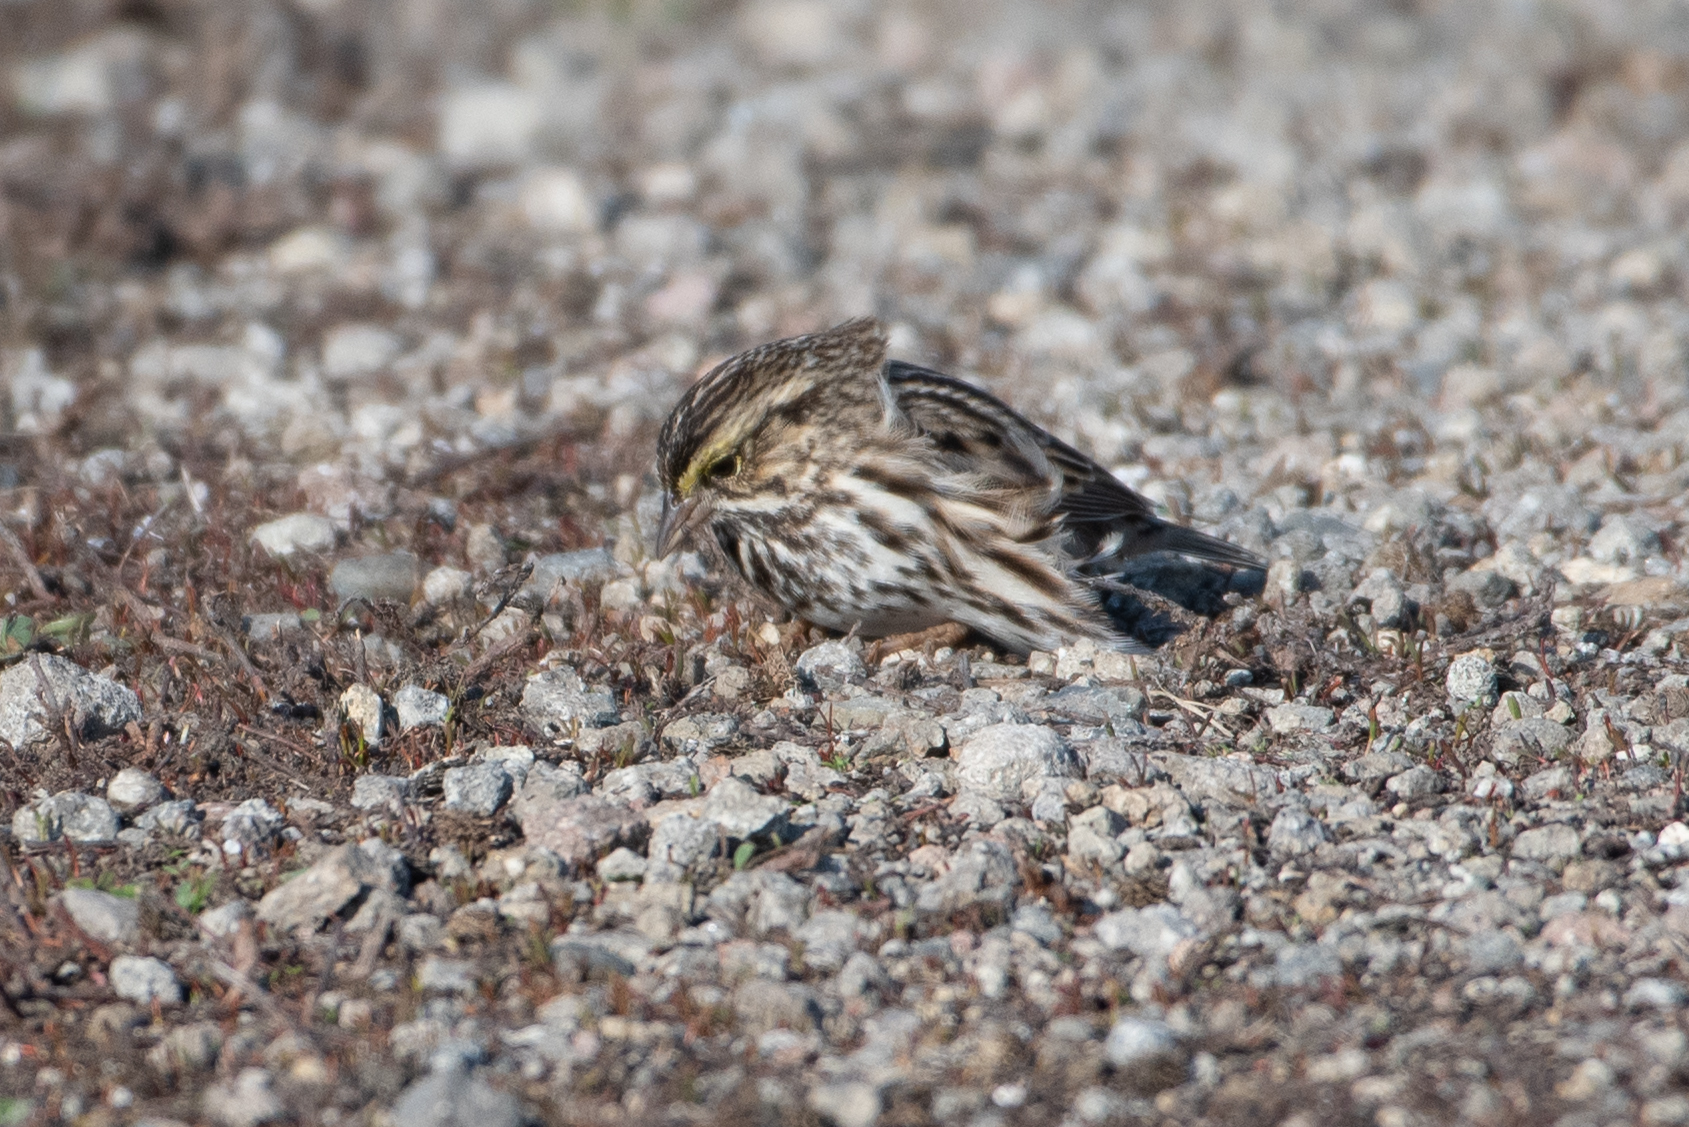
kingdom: Animalia
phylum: Chordata
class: Aves
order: Passeriformes
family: Passerellidae
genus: Passerculus
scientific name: Passerculus sandwichensis
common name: Savannah sparrow
